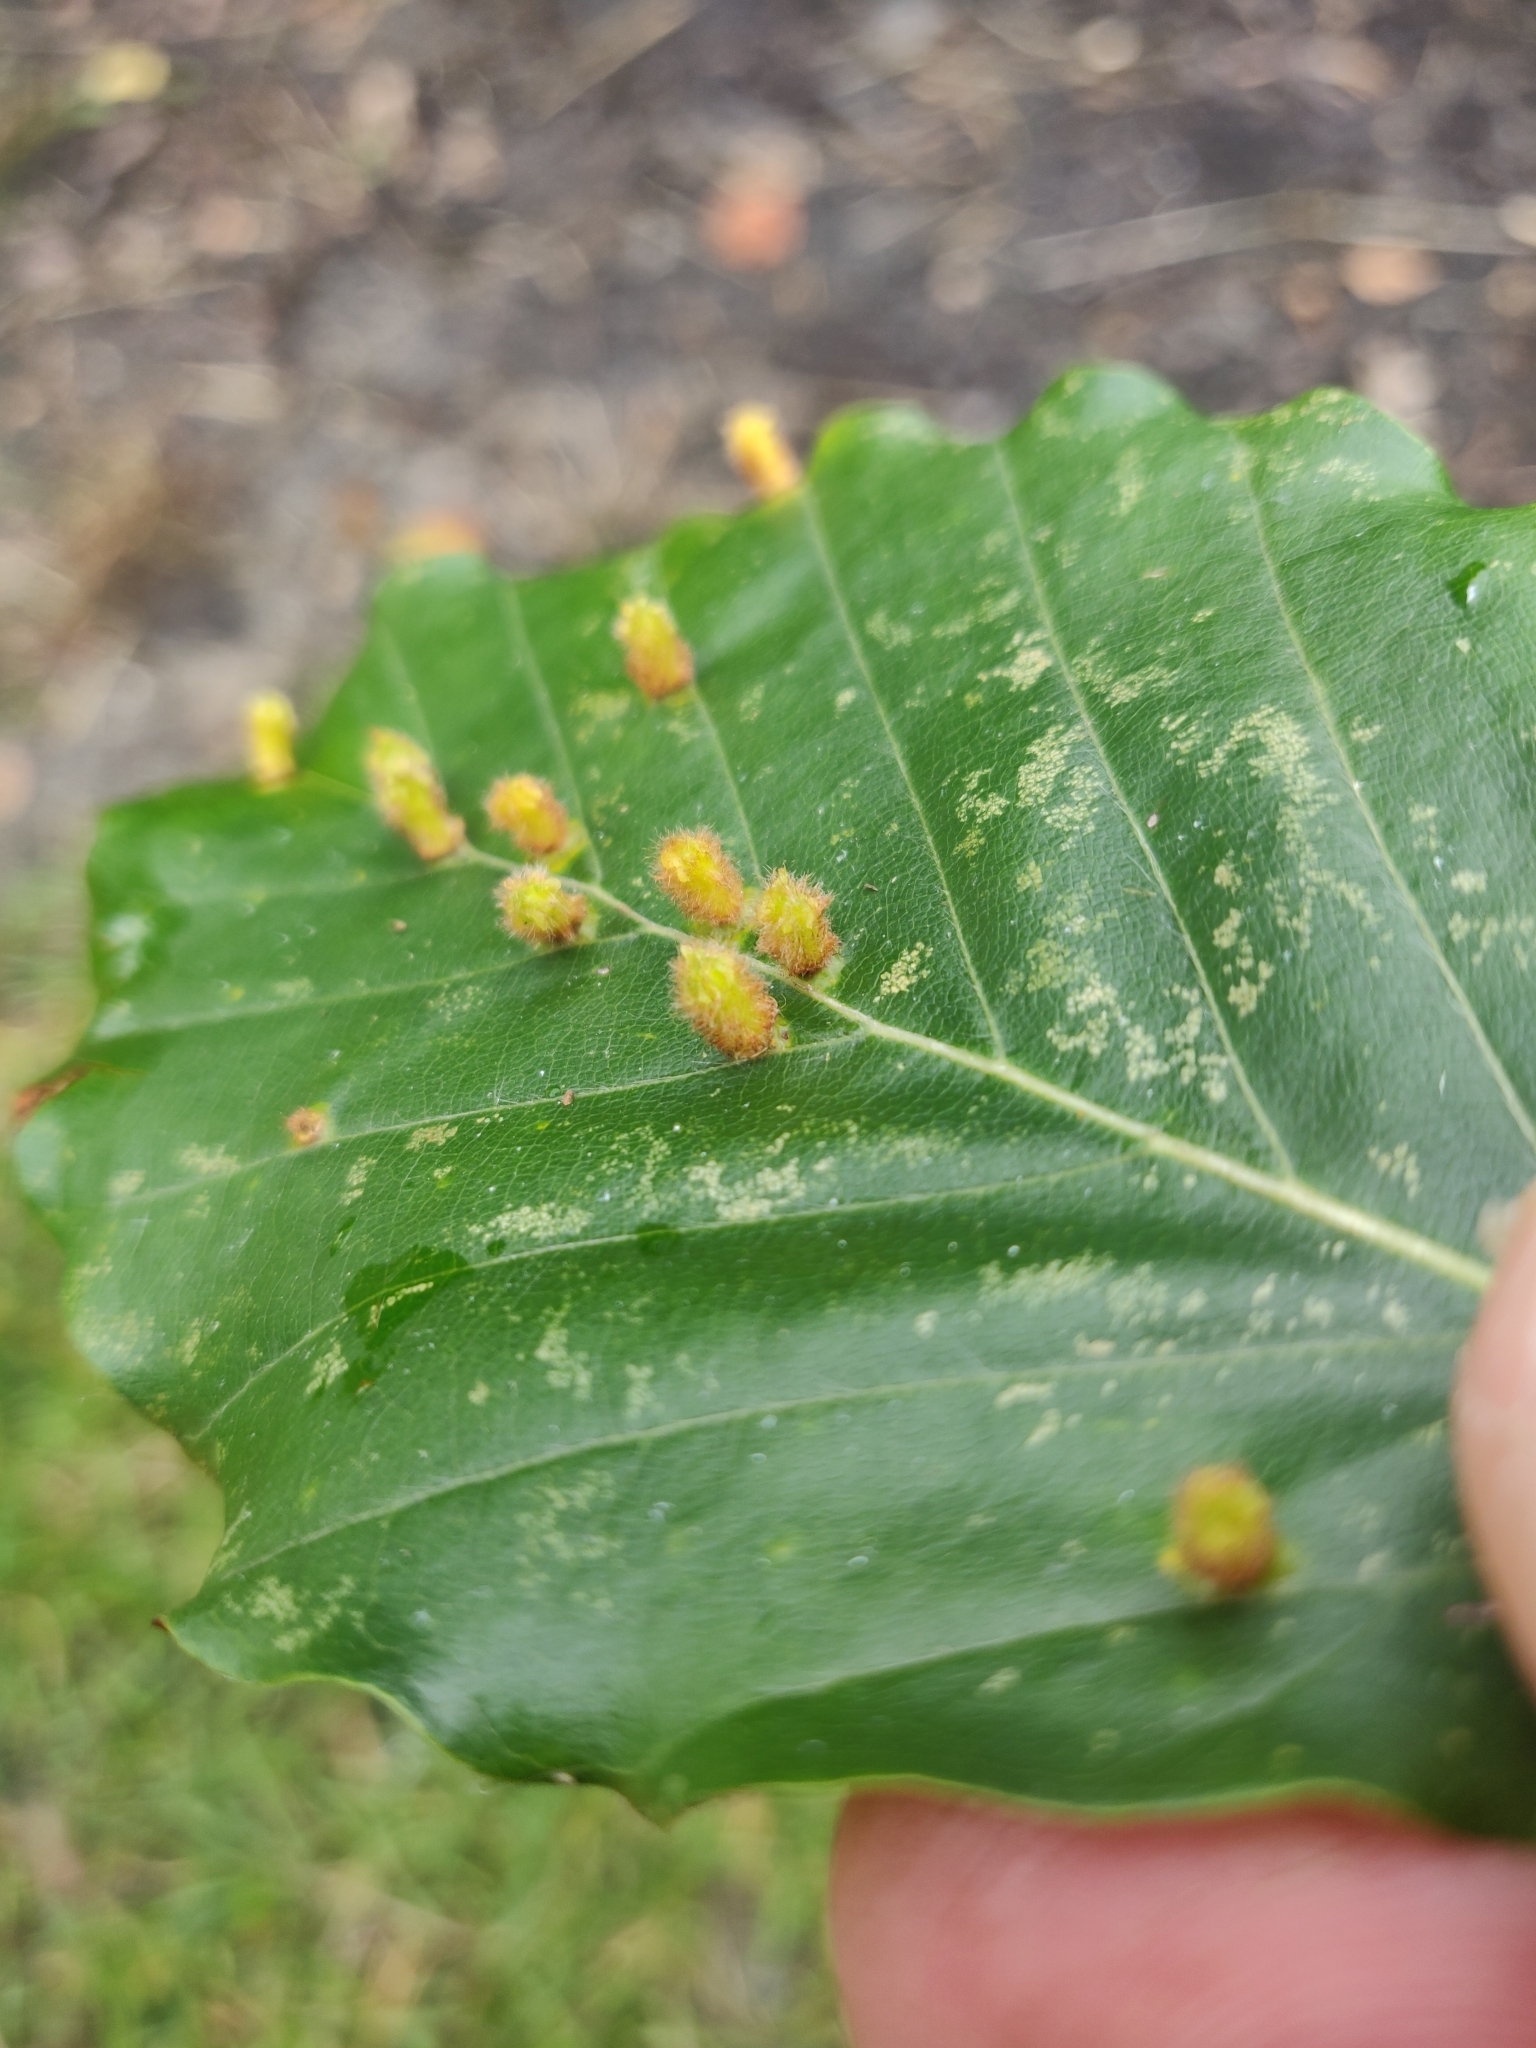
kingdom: Animalia
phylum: Arthropoda
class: Insecta
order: Diptera
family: Cecidomyiidae
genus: Hartigiola
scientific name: Hartigiola annulipes
